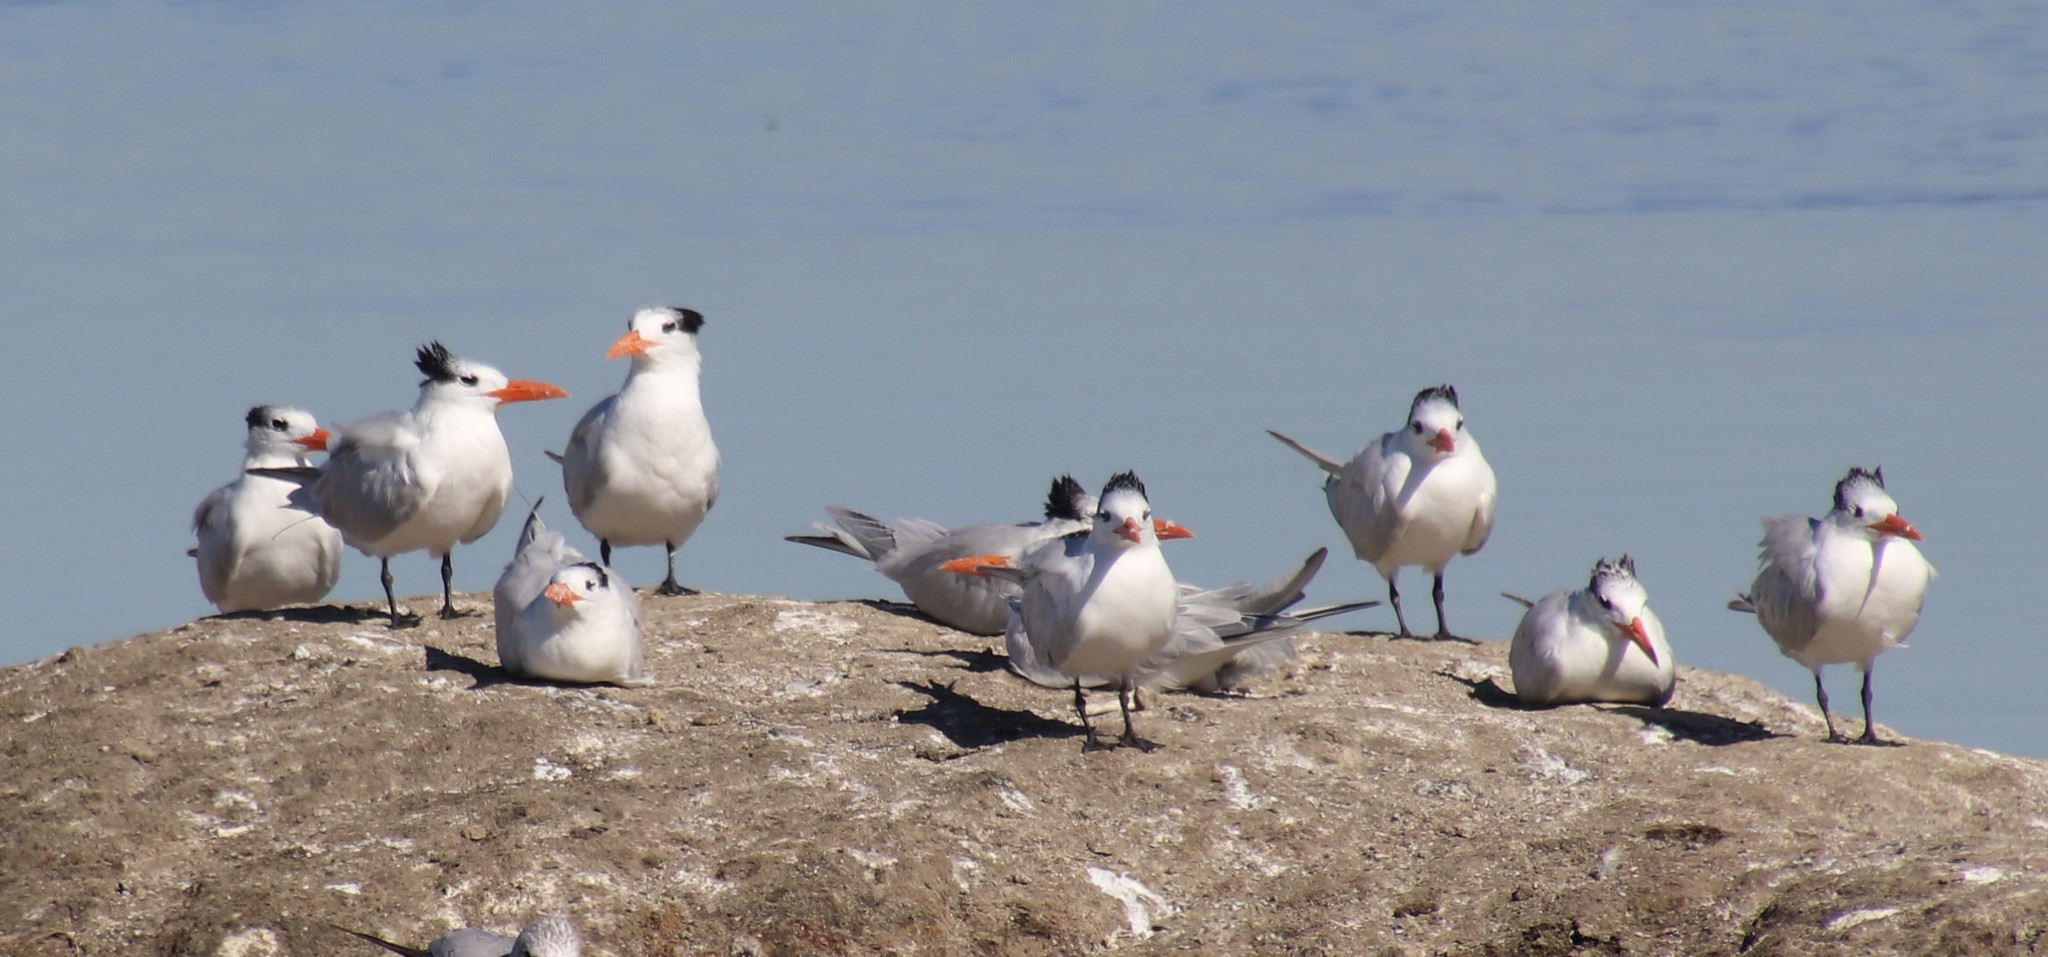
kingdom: Animalia
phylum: Chordata
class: Aves
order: Charadriiformes
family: Laridae
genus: Thalasseus
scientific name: Thalasseus maximus
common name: Royal tern
